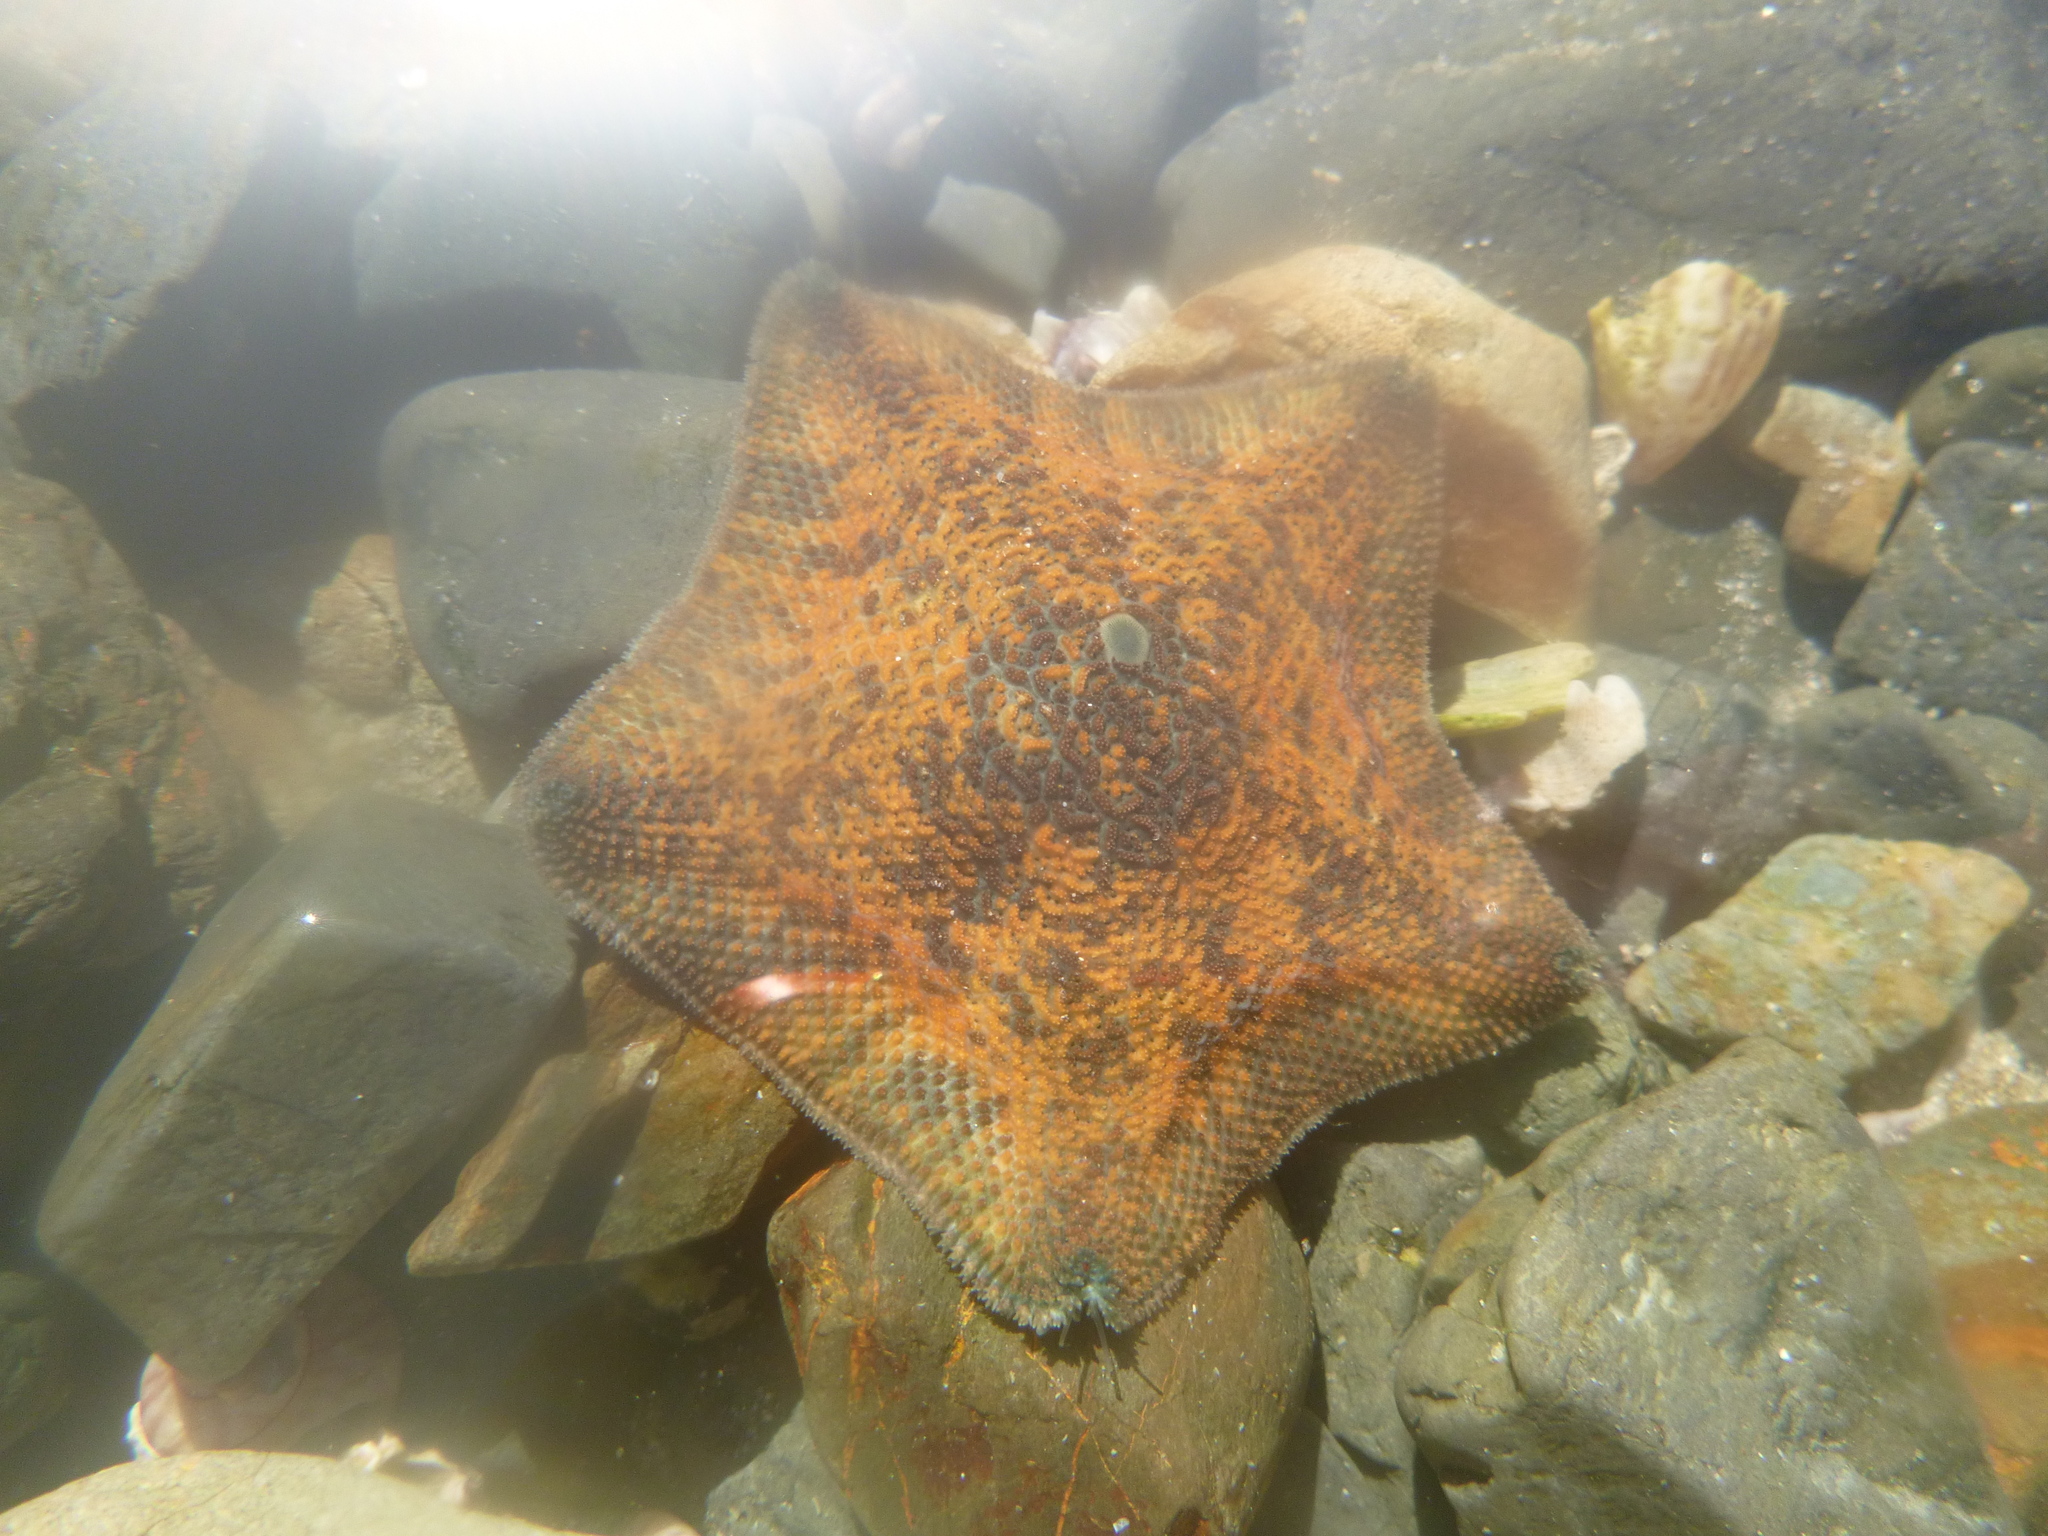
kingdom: Animalia
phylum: Echinodermata
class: Asteroidea
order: Valvatida
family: Asterinidae
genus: Patiriella
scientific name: Patiriella regularis
